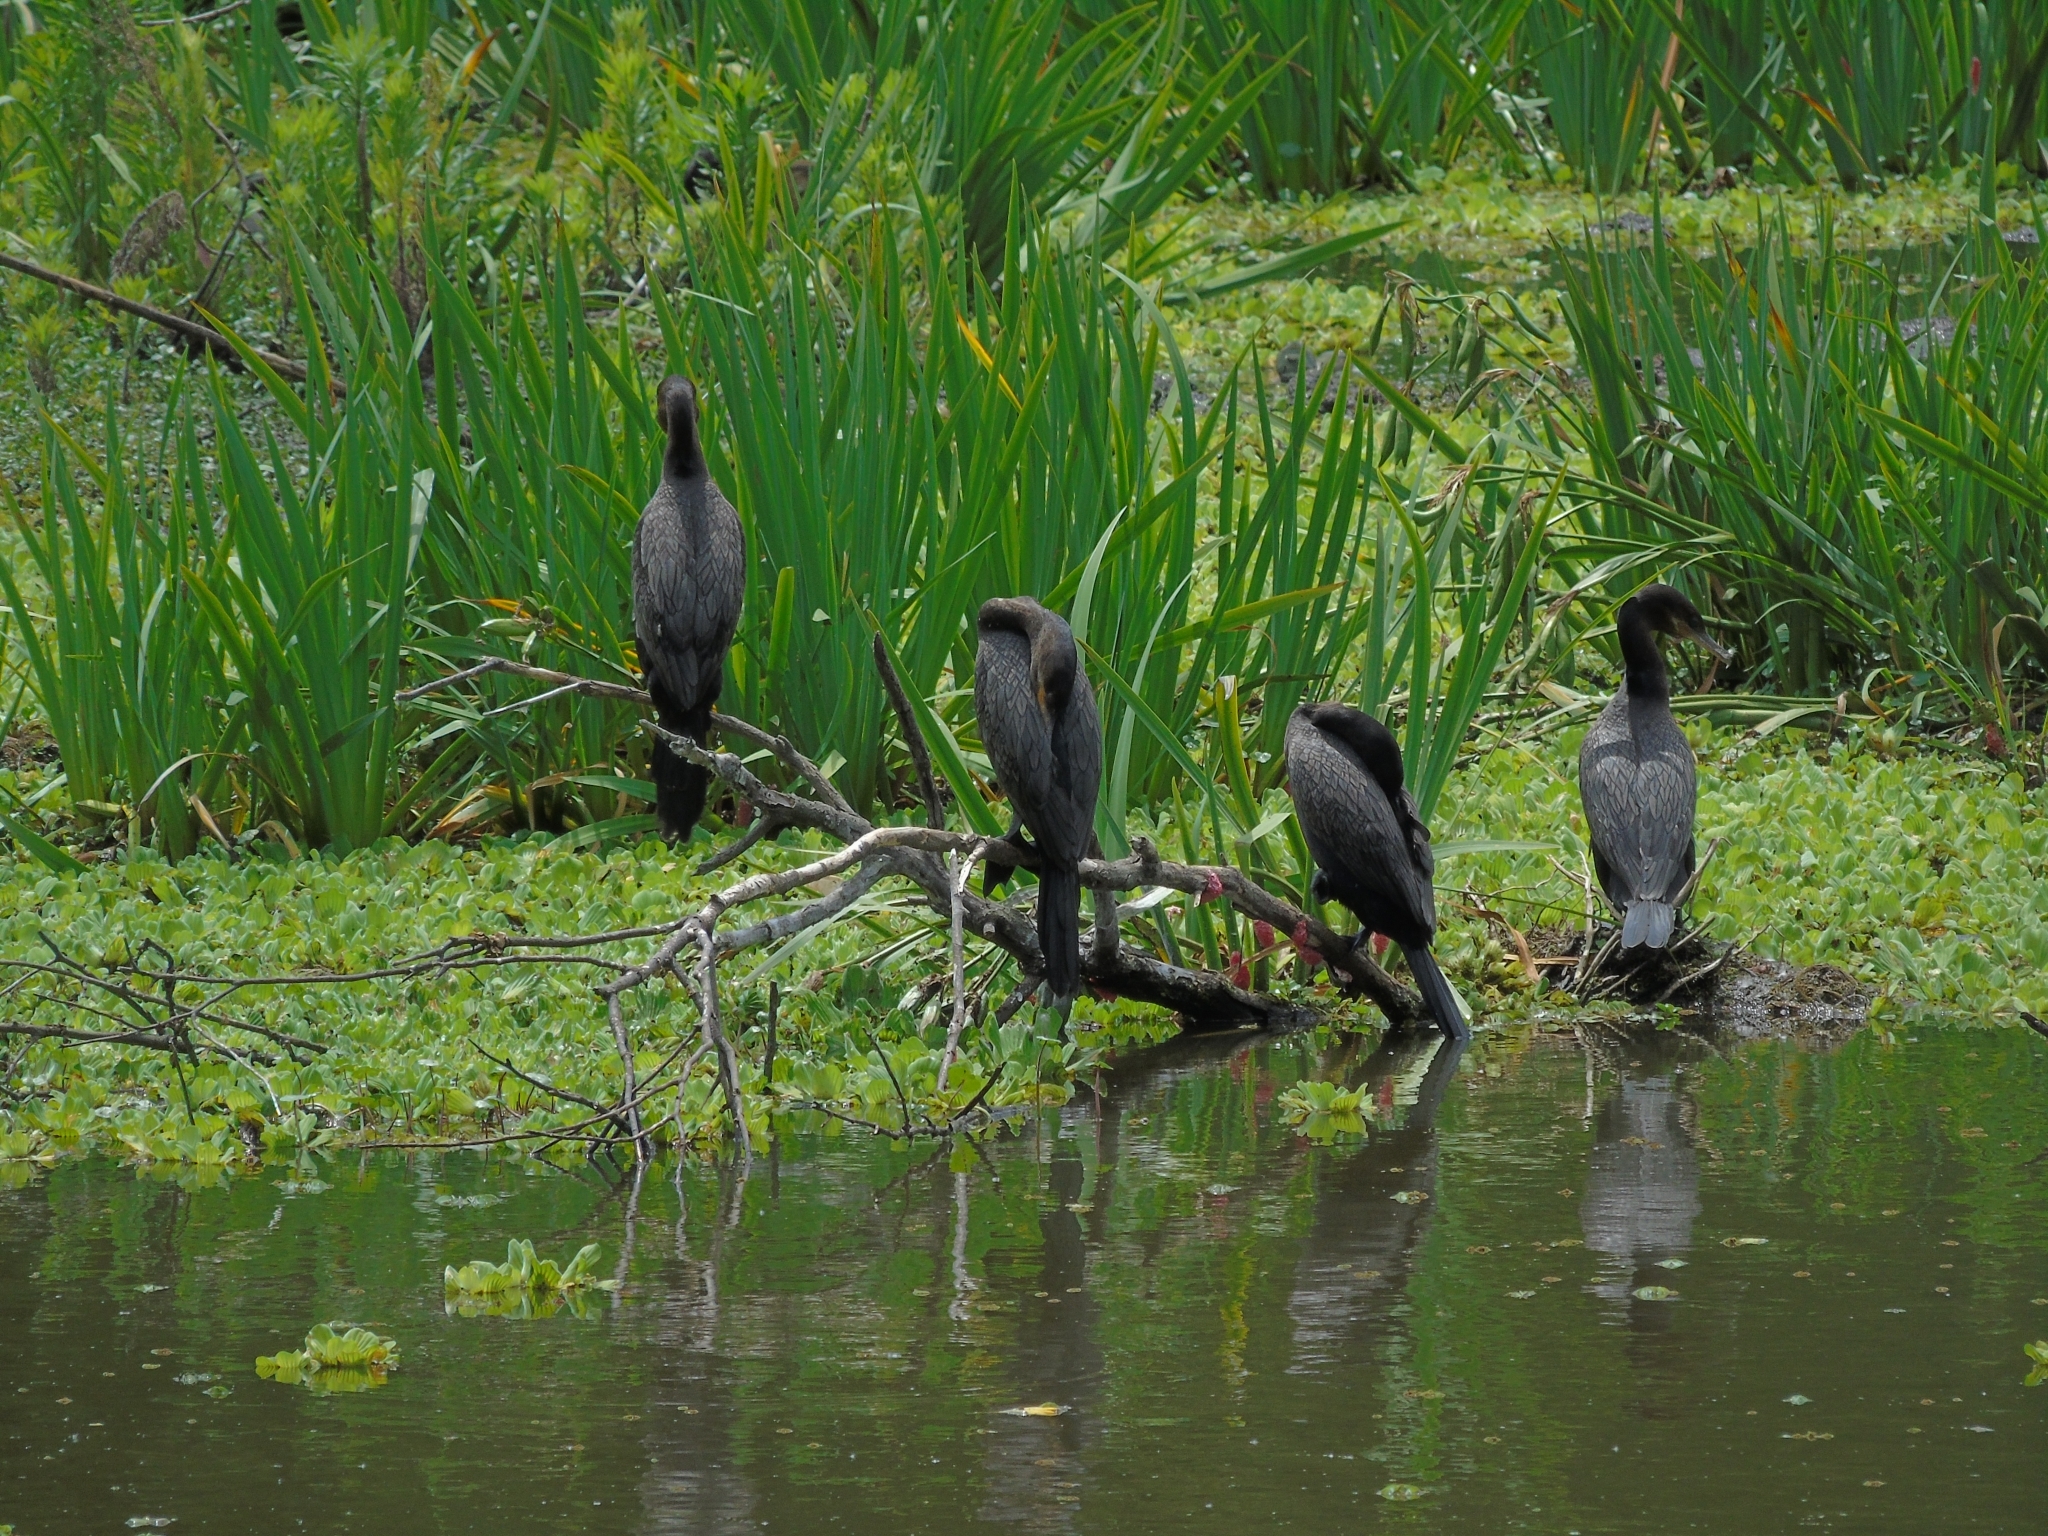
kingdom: Animalia
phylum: Chordata
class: Aves
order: Suliformes
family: Phalacrocoracidae
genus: Phalacrocorax
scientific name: Phalacrocorax brasilianus
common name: Neotropic cormorant
